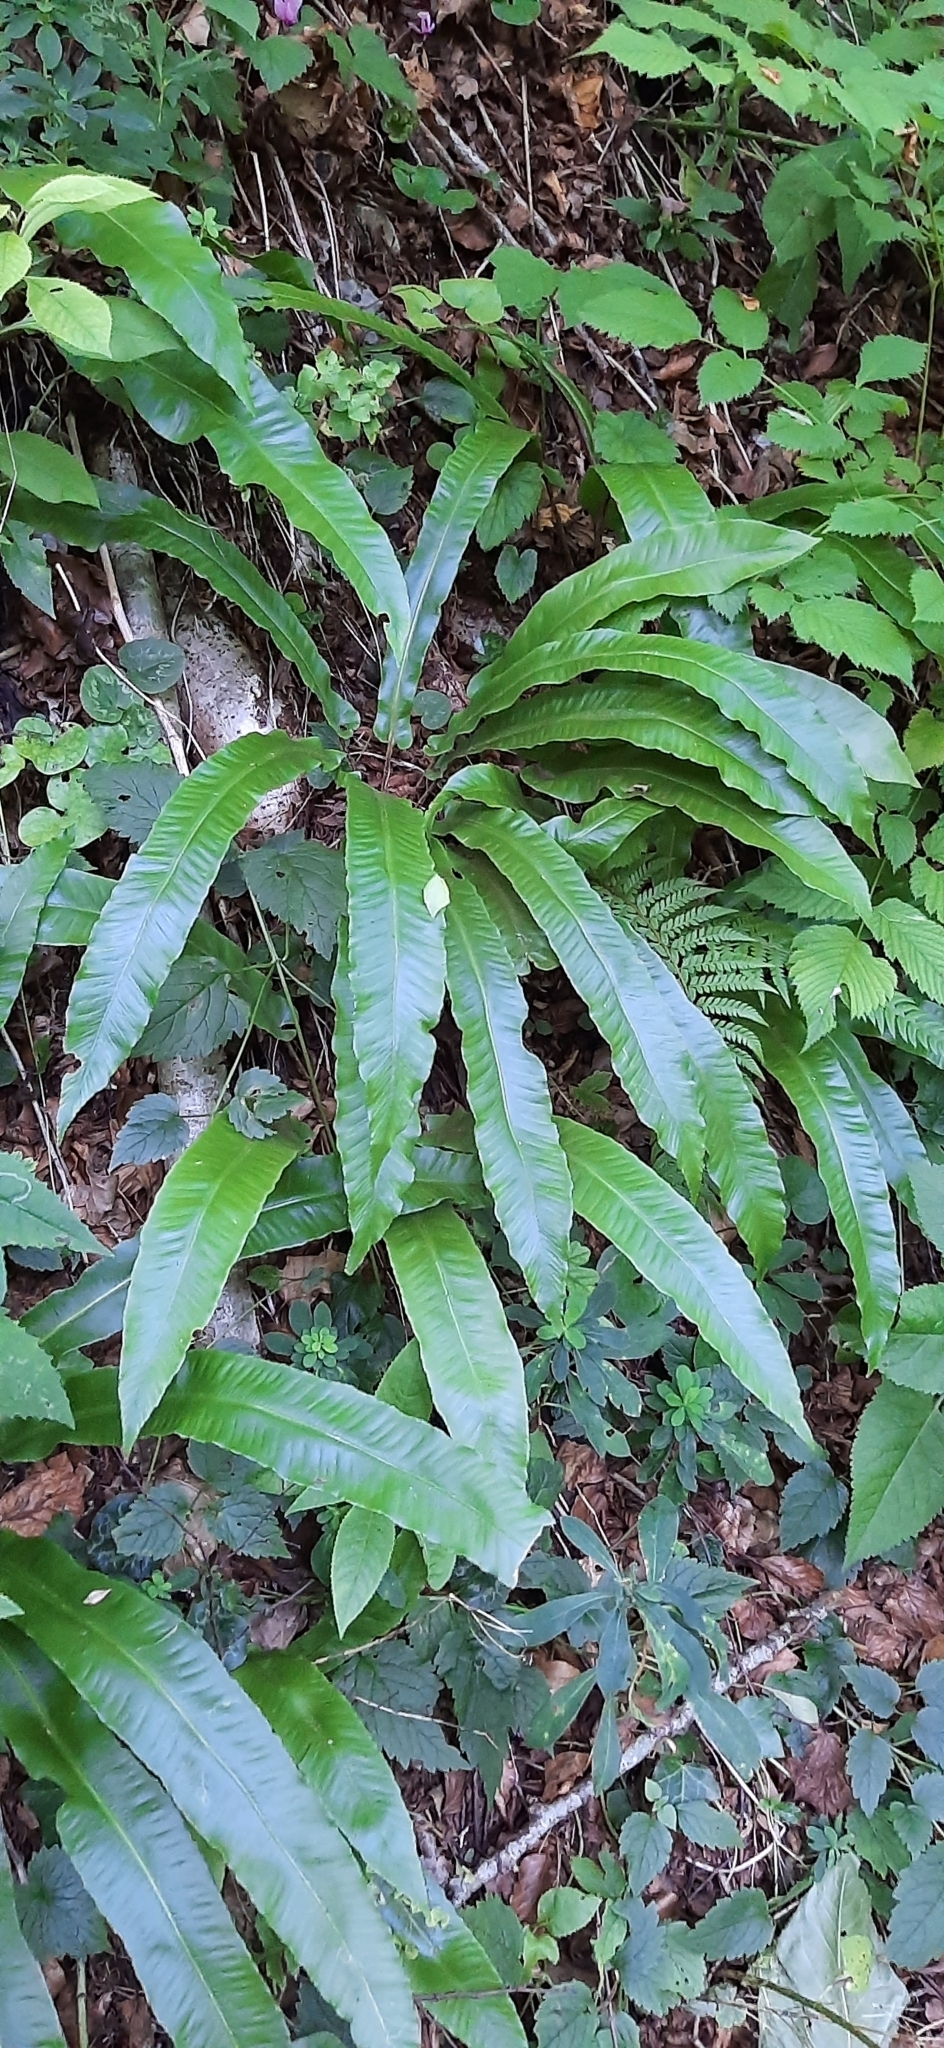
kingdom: Plantae
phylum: Tracheophyta
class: Polypodiopsida
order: Polypodiales
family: Aspleniaceae
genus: Asplenium
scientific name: Asplenium scolopendrium
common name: Hart's-tongue fern
